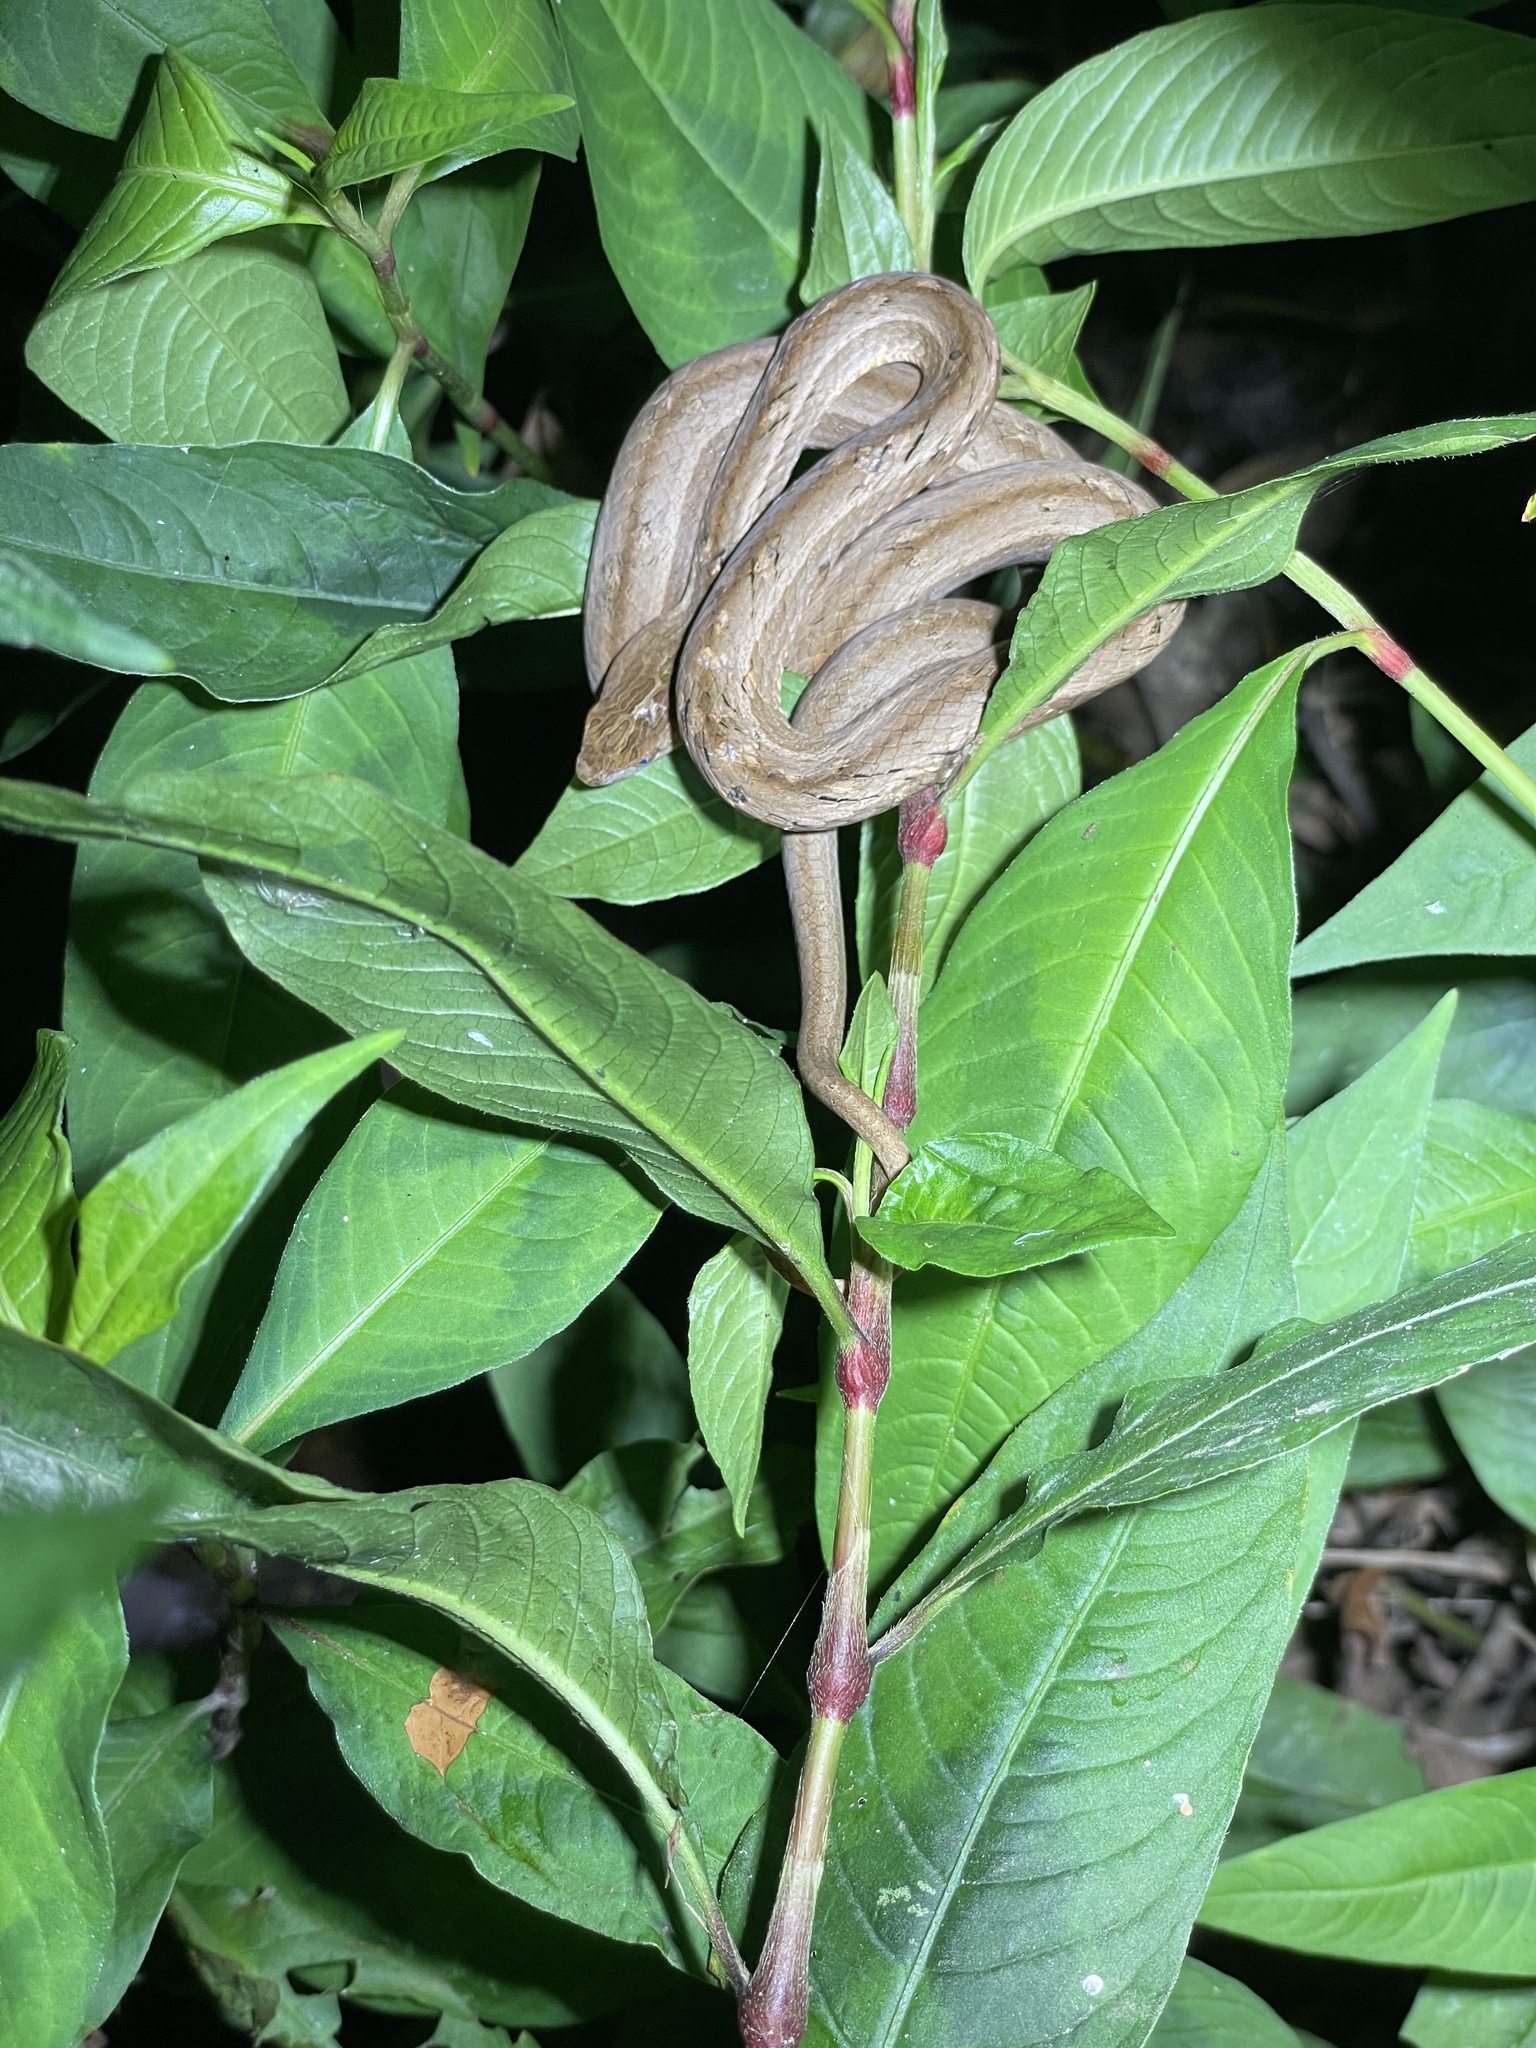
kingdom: Animalia
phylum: Chordata
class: Squamata
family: Pseudaspididae
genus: Psammodynastes
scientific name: Psammodynastes pulverulentus
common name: Common mock viper
